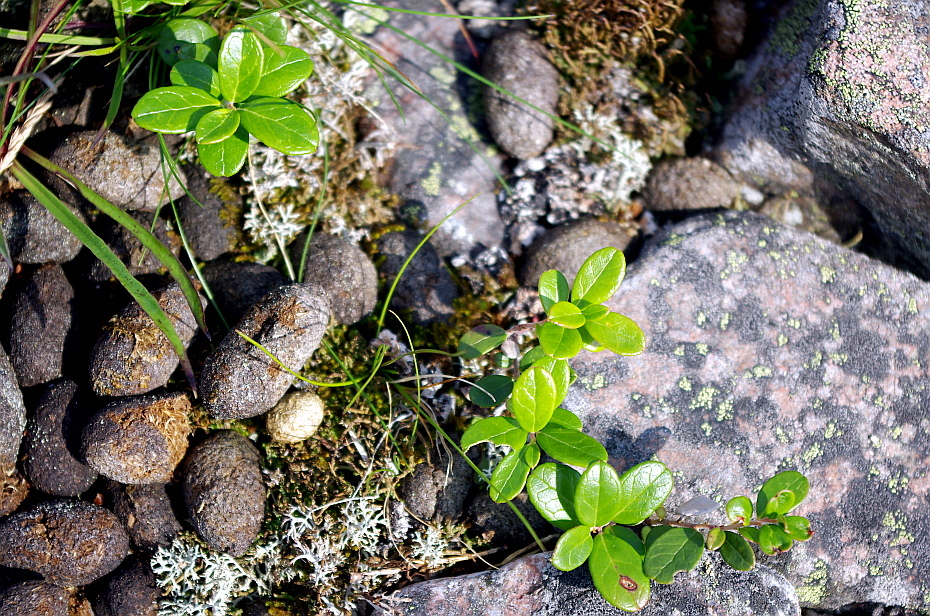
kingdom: Plantae
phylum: Tracheophyta
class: Magnoliopsida
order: Ericales
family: Ericaceae
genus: Vaccinium
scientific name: Vaccinium vitis-idaea
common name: Cowberry
